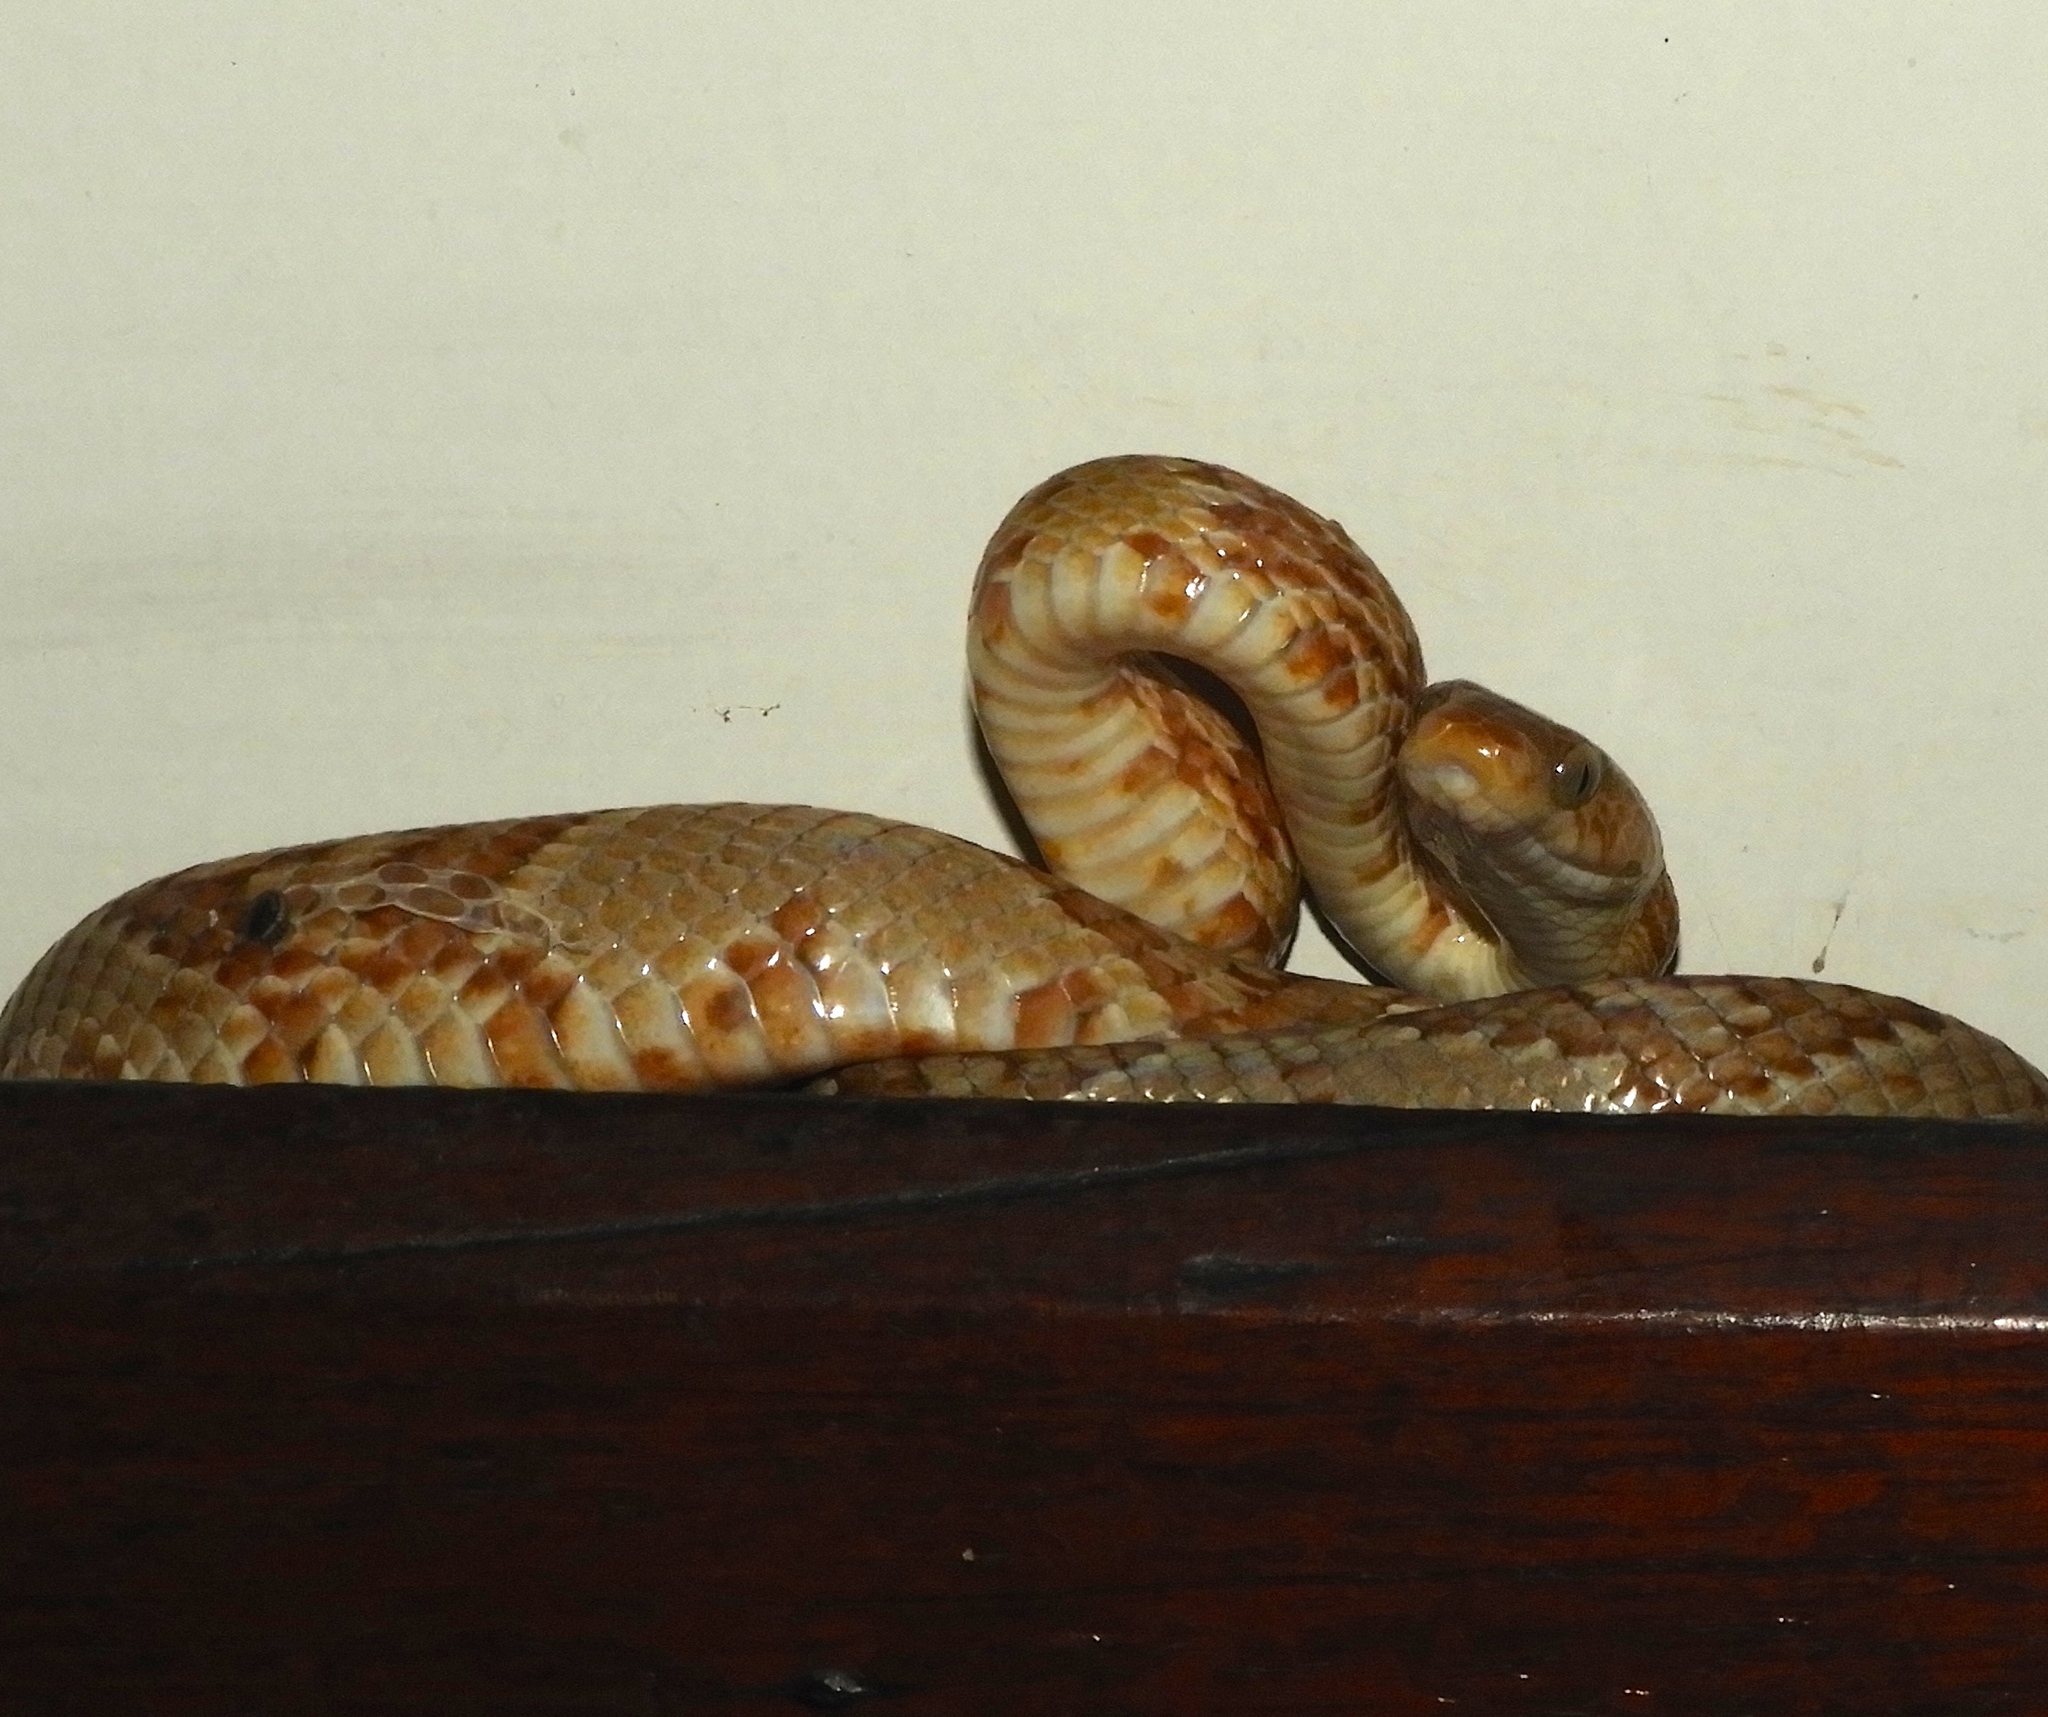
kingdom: Animalia
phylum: Chordata
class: Squamata
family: Colubridae
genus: Trimorphodon
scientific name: Trimorphodon paucimaculatus
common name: Sinaloan lyresnake
